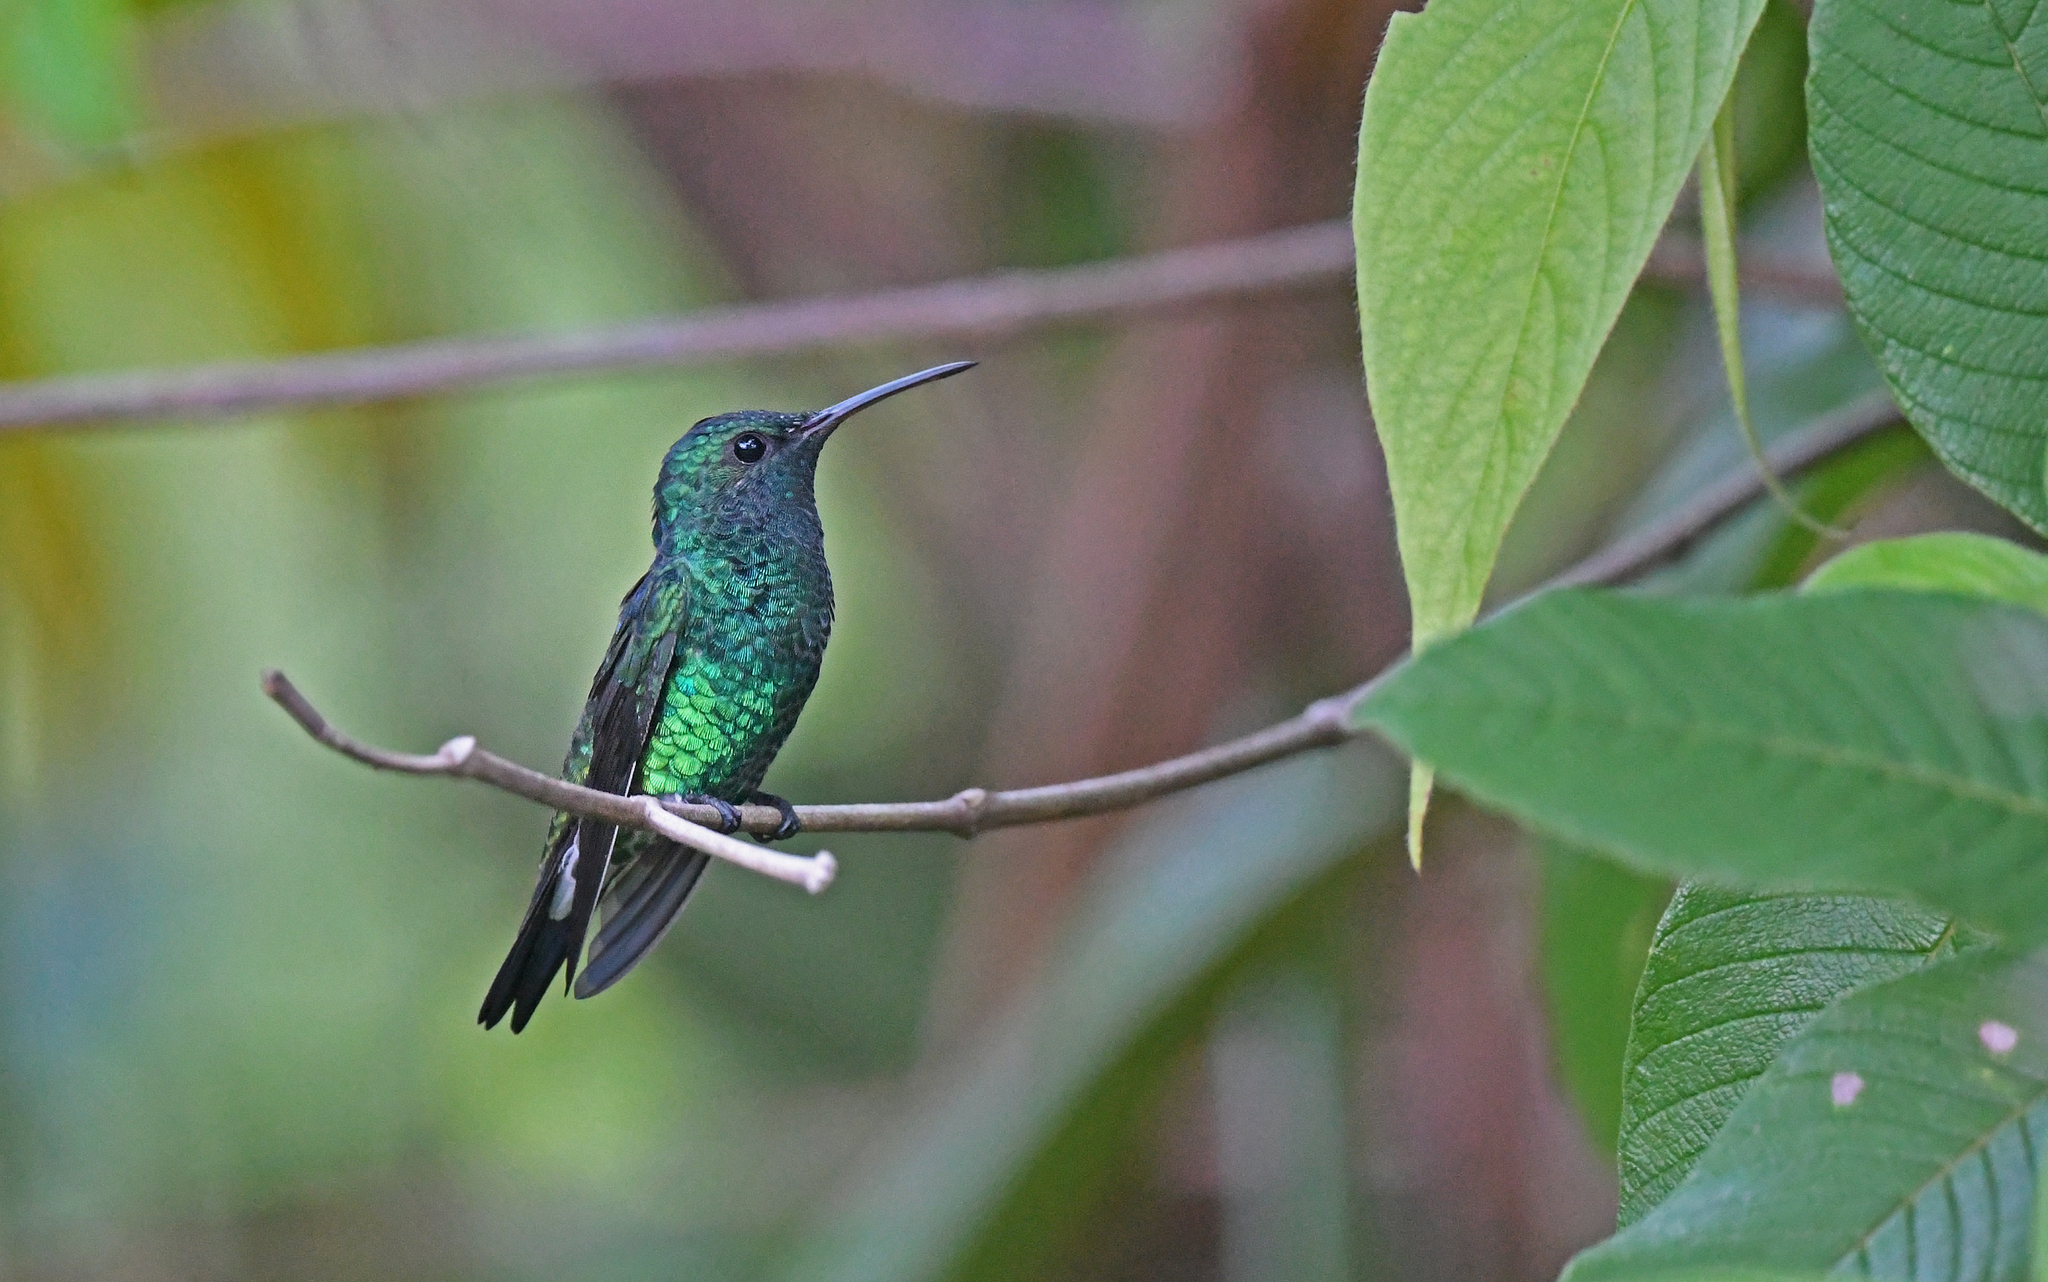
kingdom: Animalia
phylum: Chordata
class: Aves
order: Apodiformes
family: Trochilidae
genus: Chrysuronia
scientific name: Chrysuronia goudoti
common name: Shining-green hummingbird
